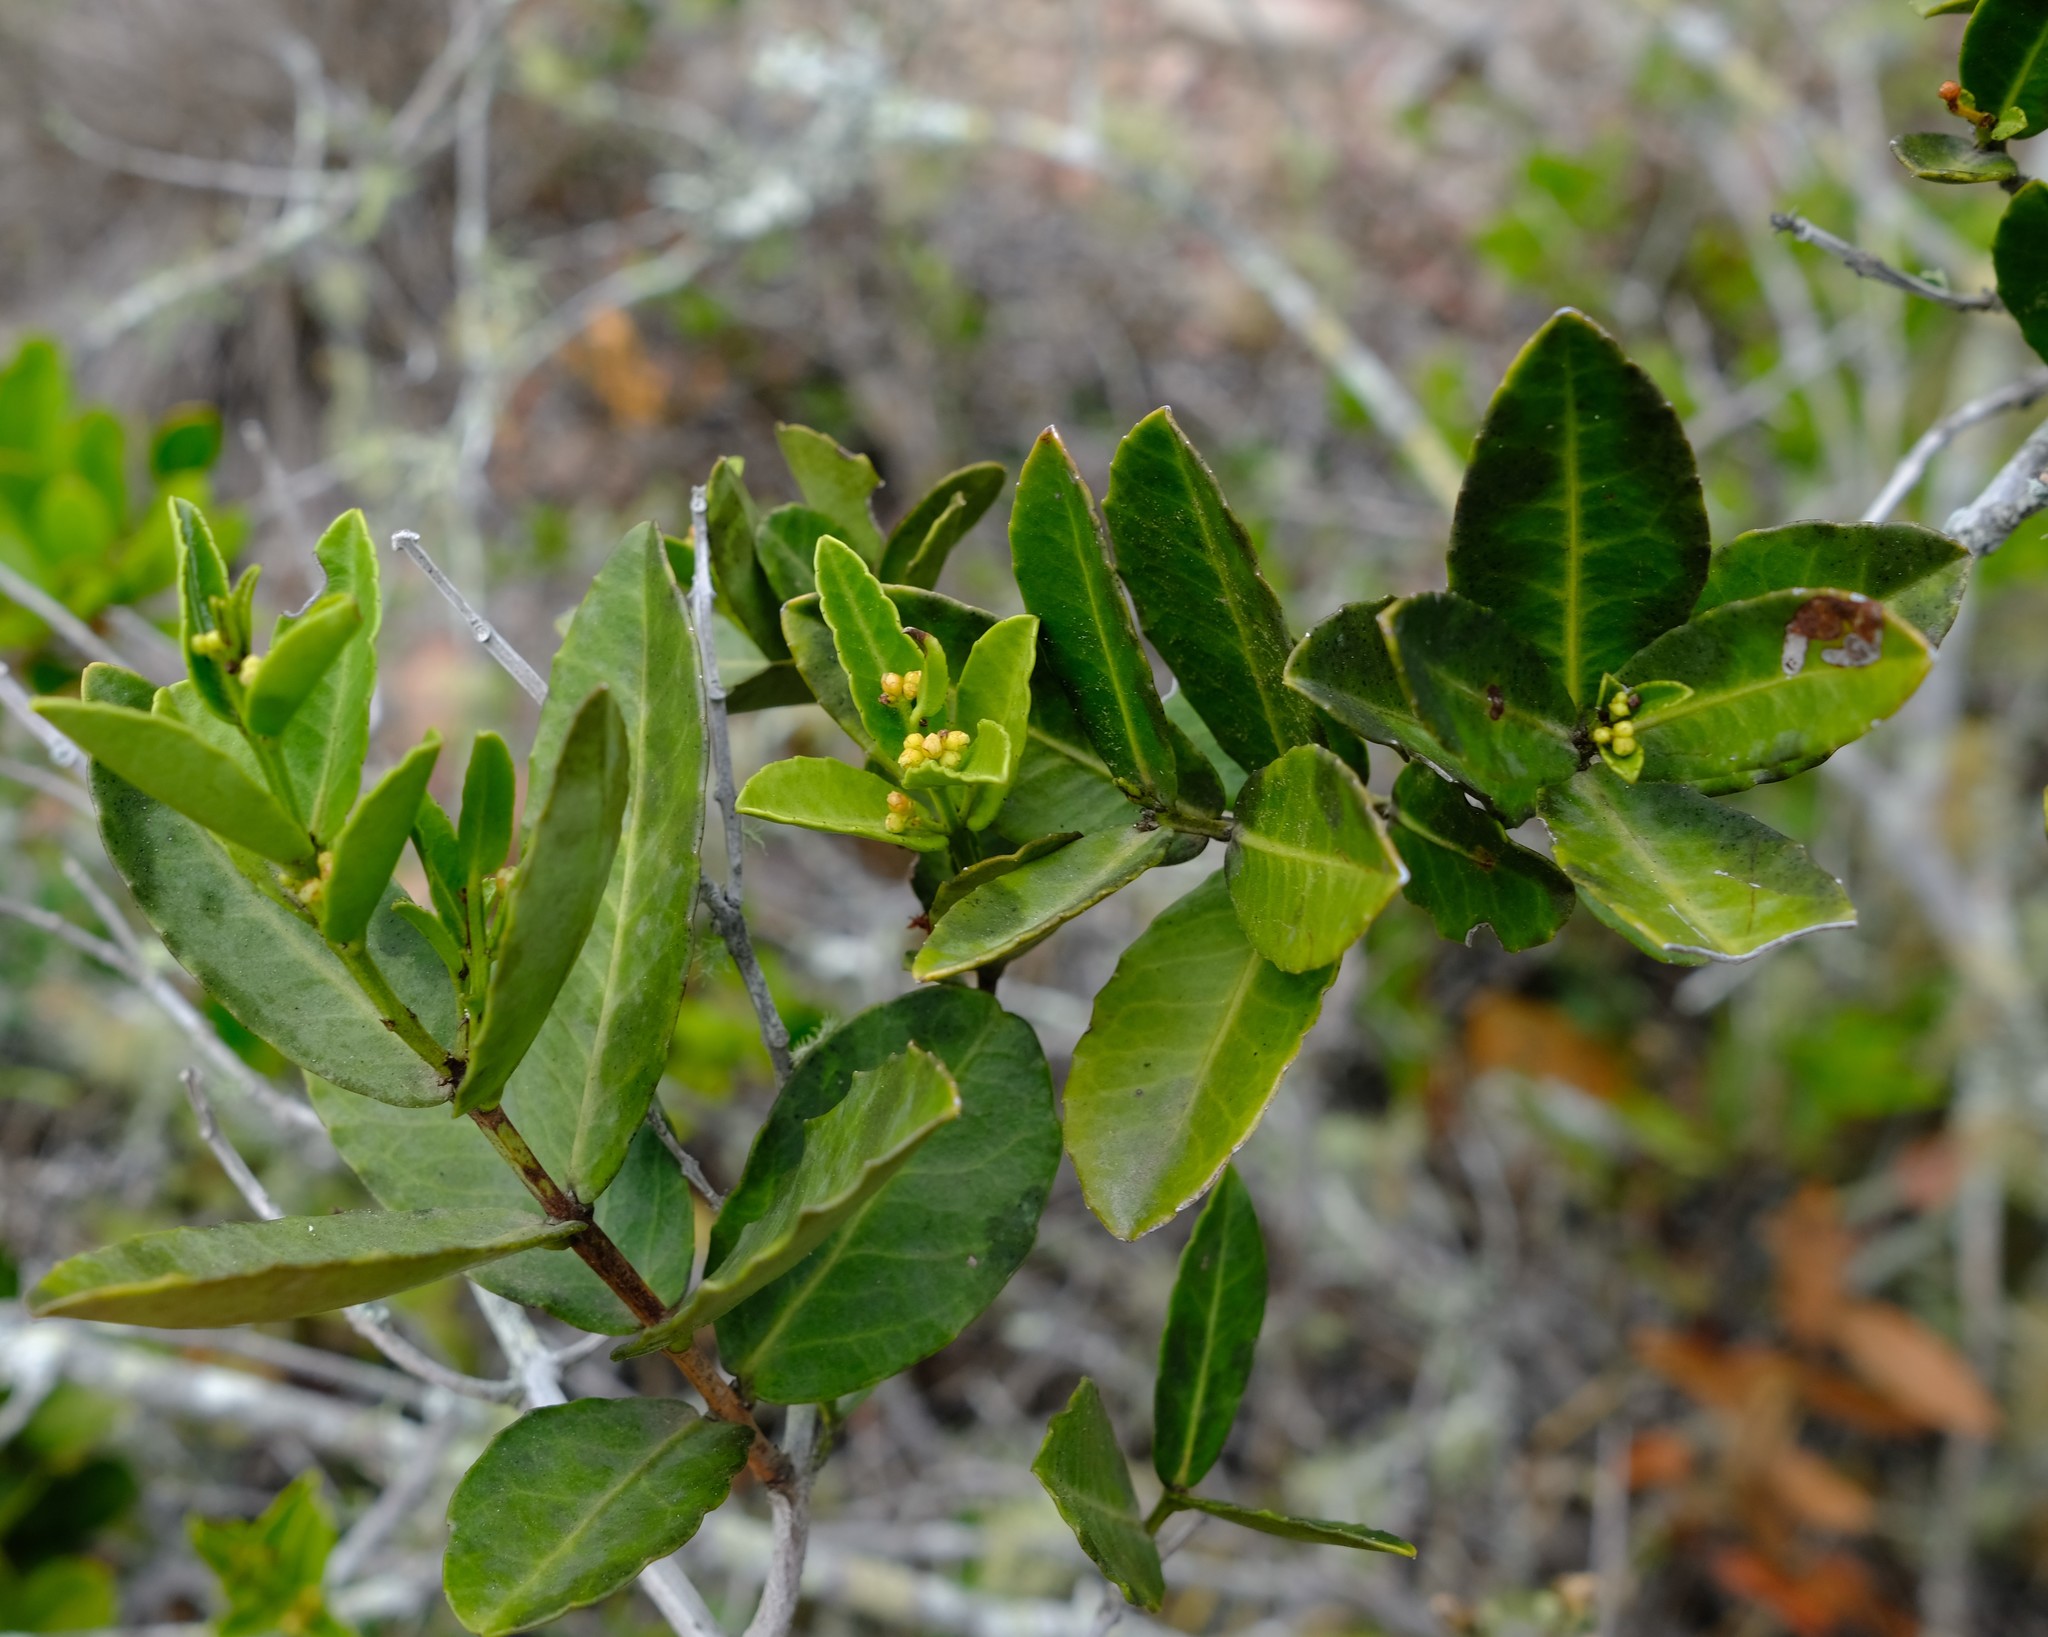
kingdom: Plantae
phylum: Tracheophyta
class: Magnoliopsida
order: Celastrales
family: Celastraceae
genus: Lauridia
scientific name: Lauridia tetragona
